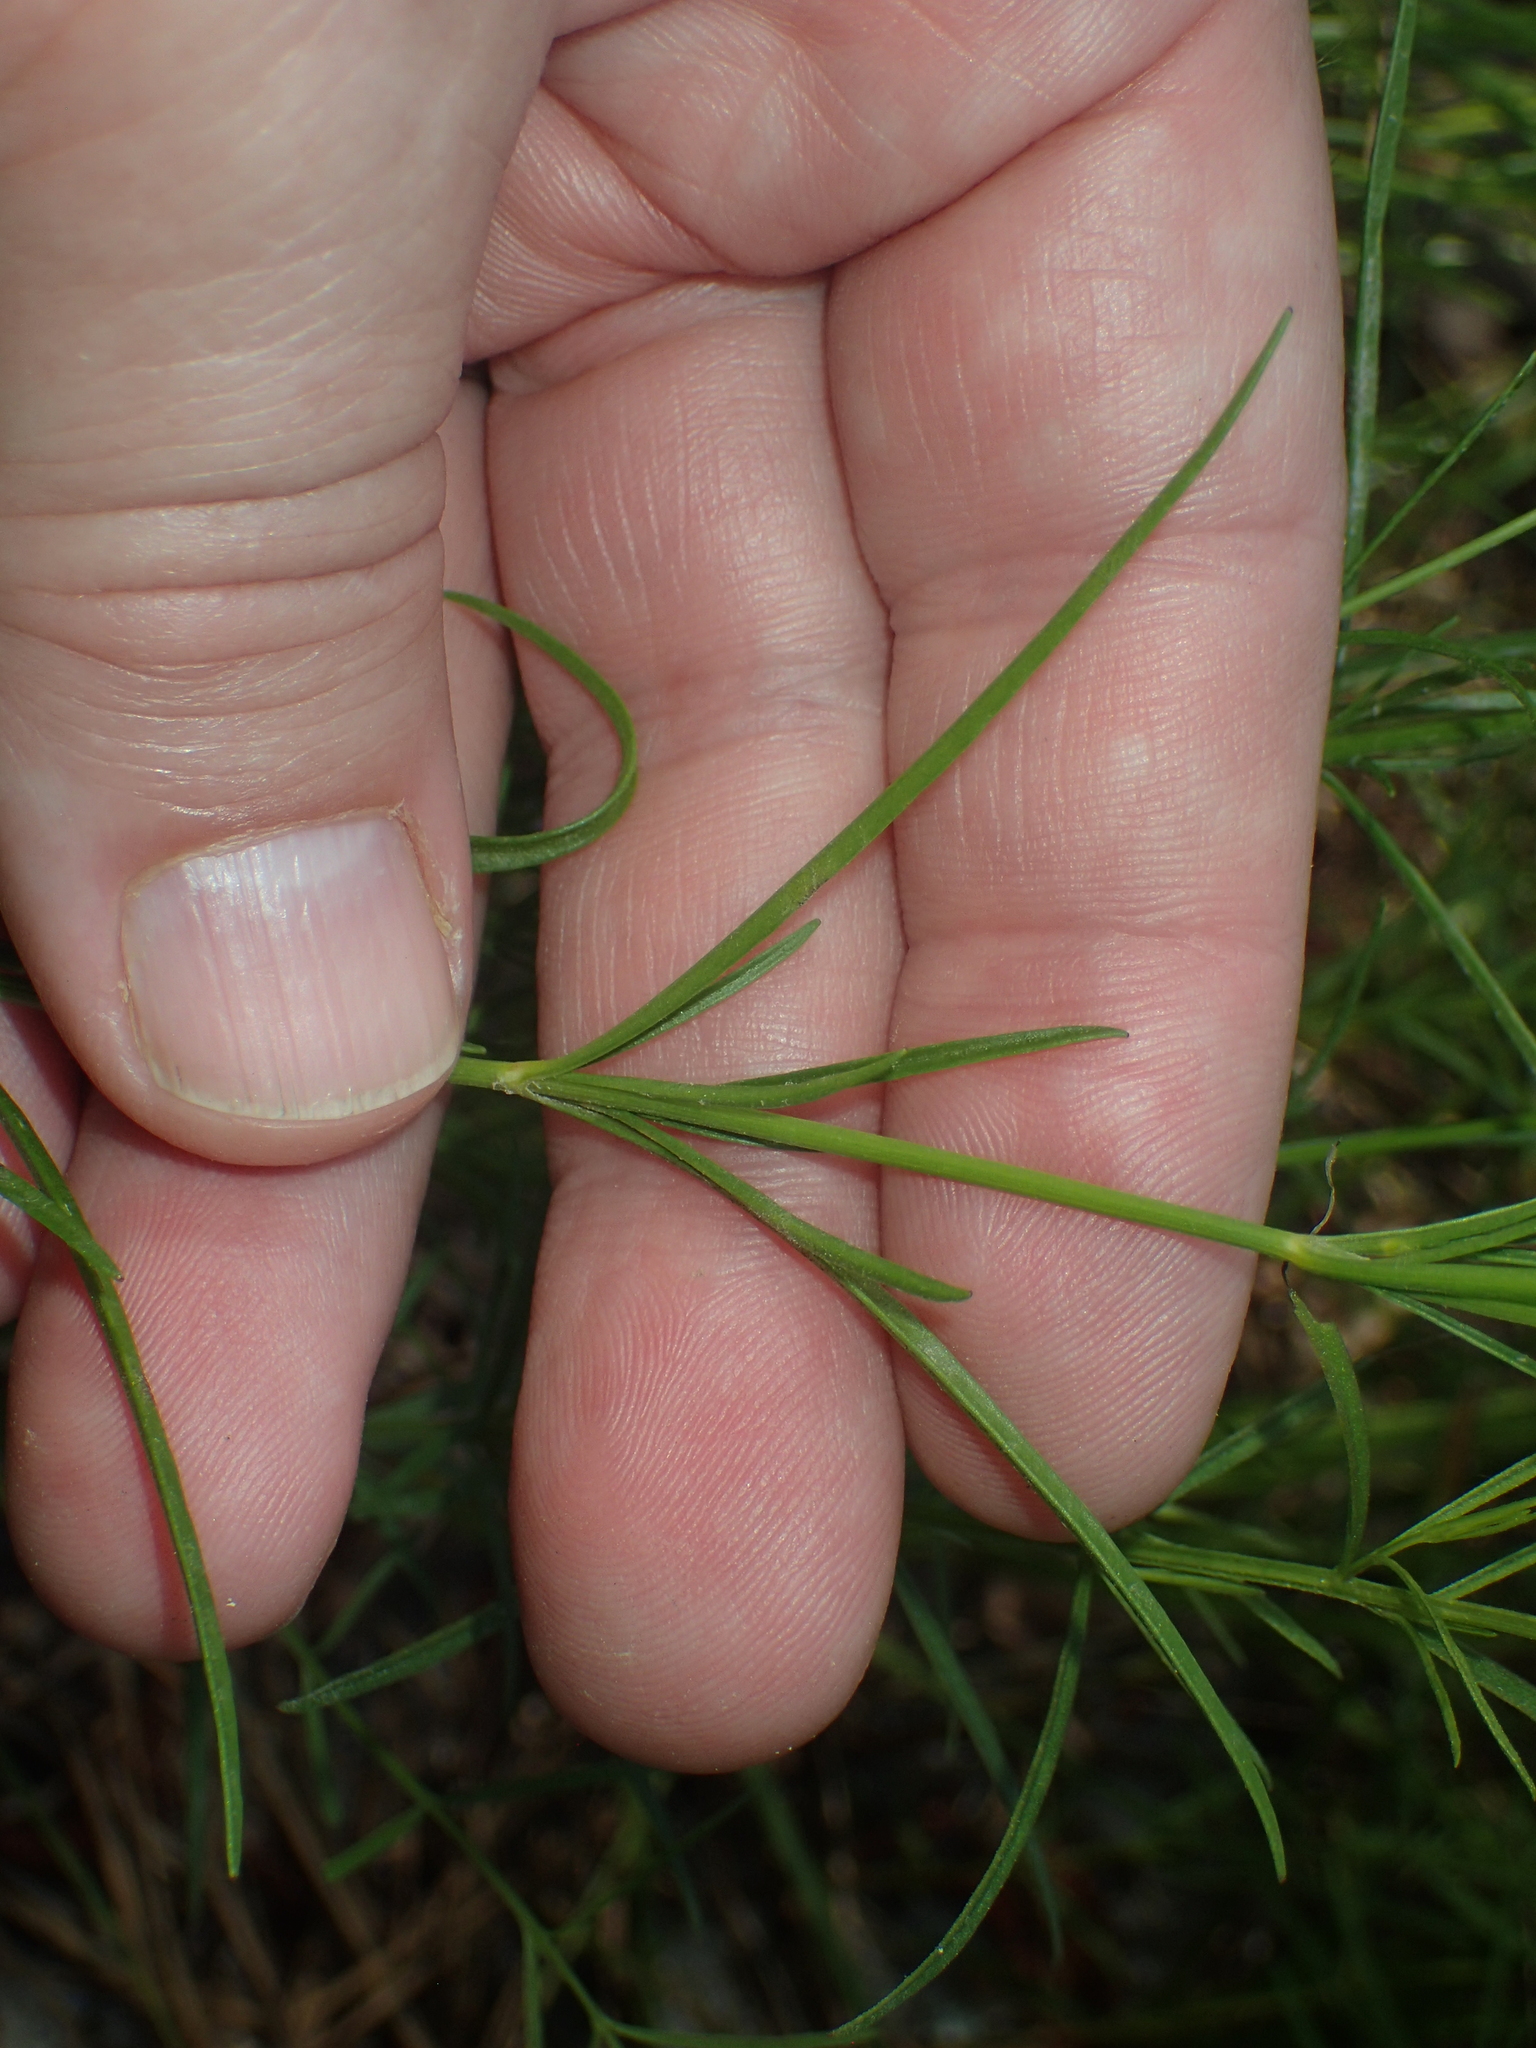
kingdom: Plantae
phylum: Tracheophyta
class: Magnoliopsida
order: Asterales
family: Asteraceae
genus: Coreopsis
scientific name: Coreopsis rosea
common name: Pink coreopsis
